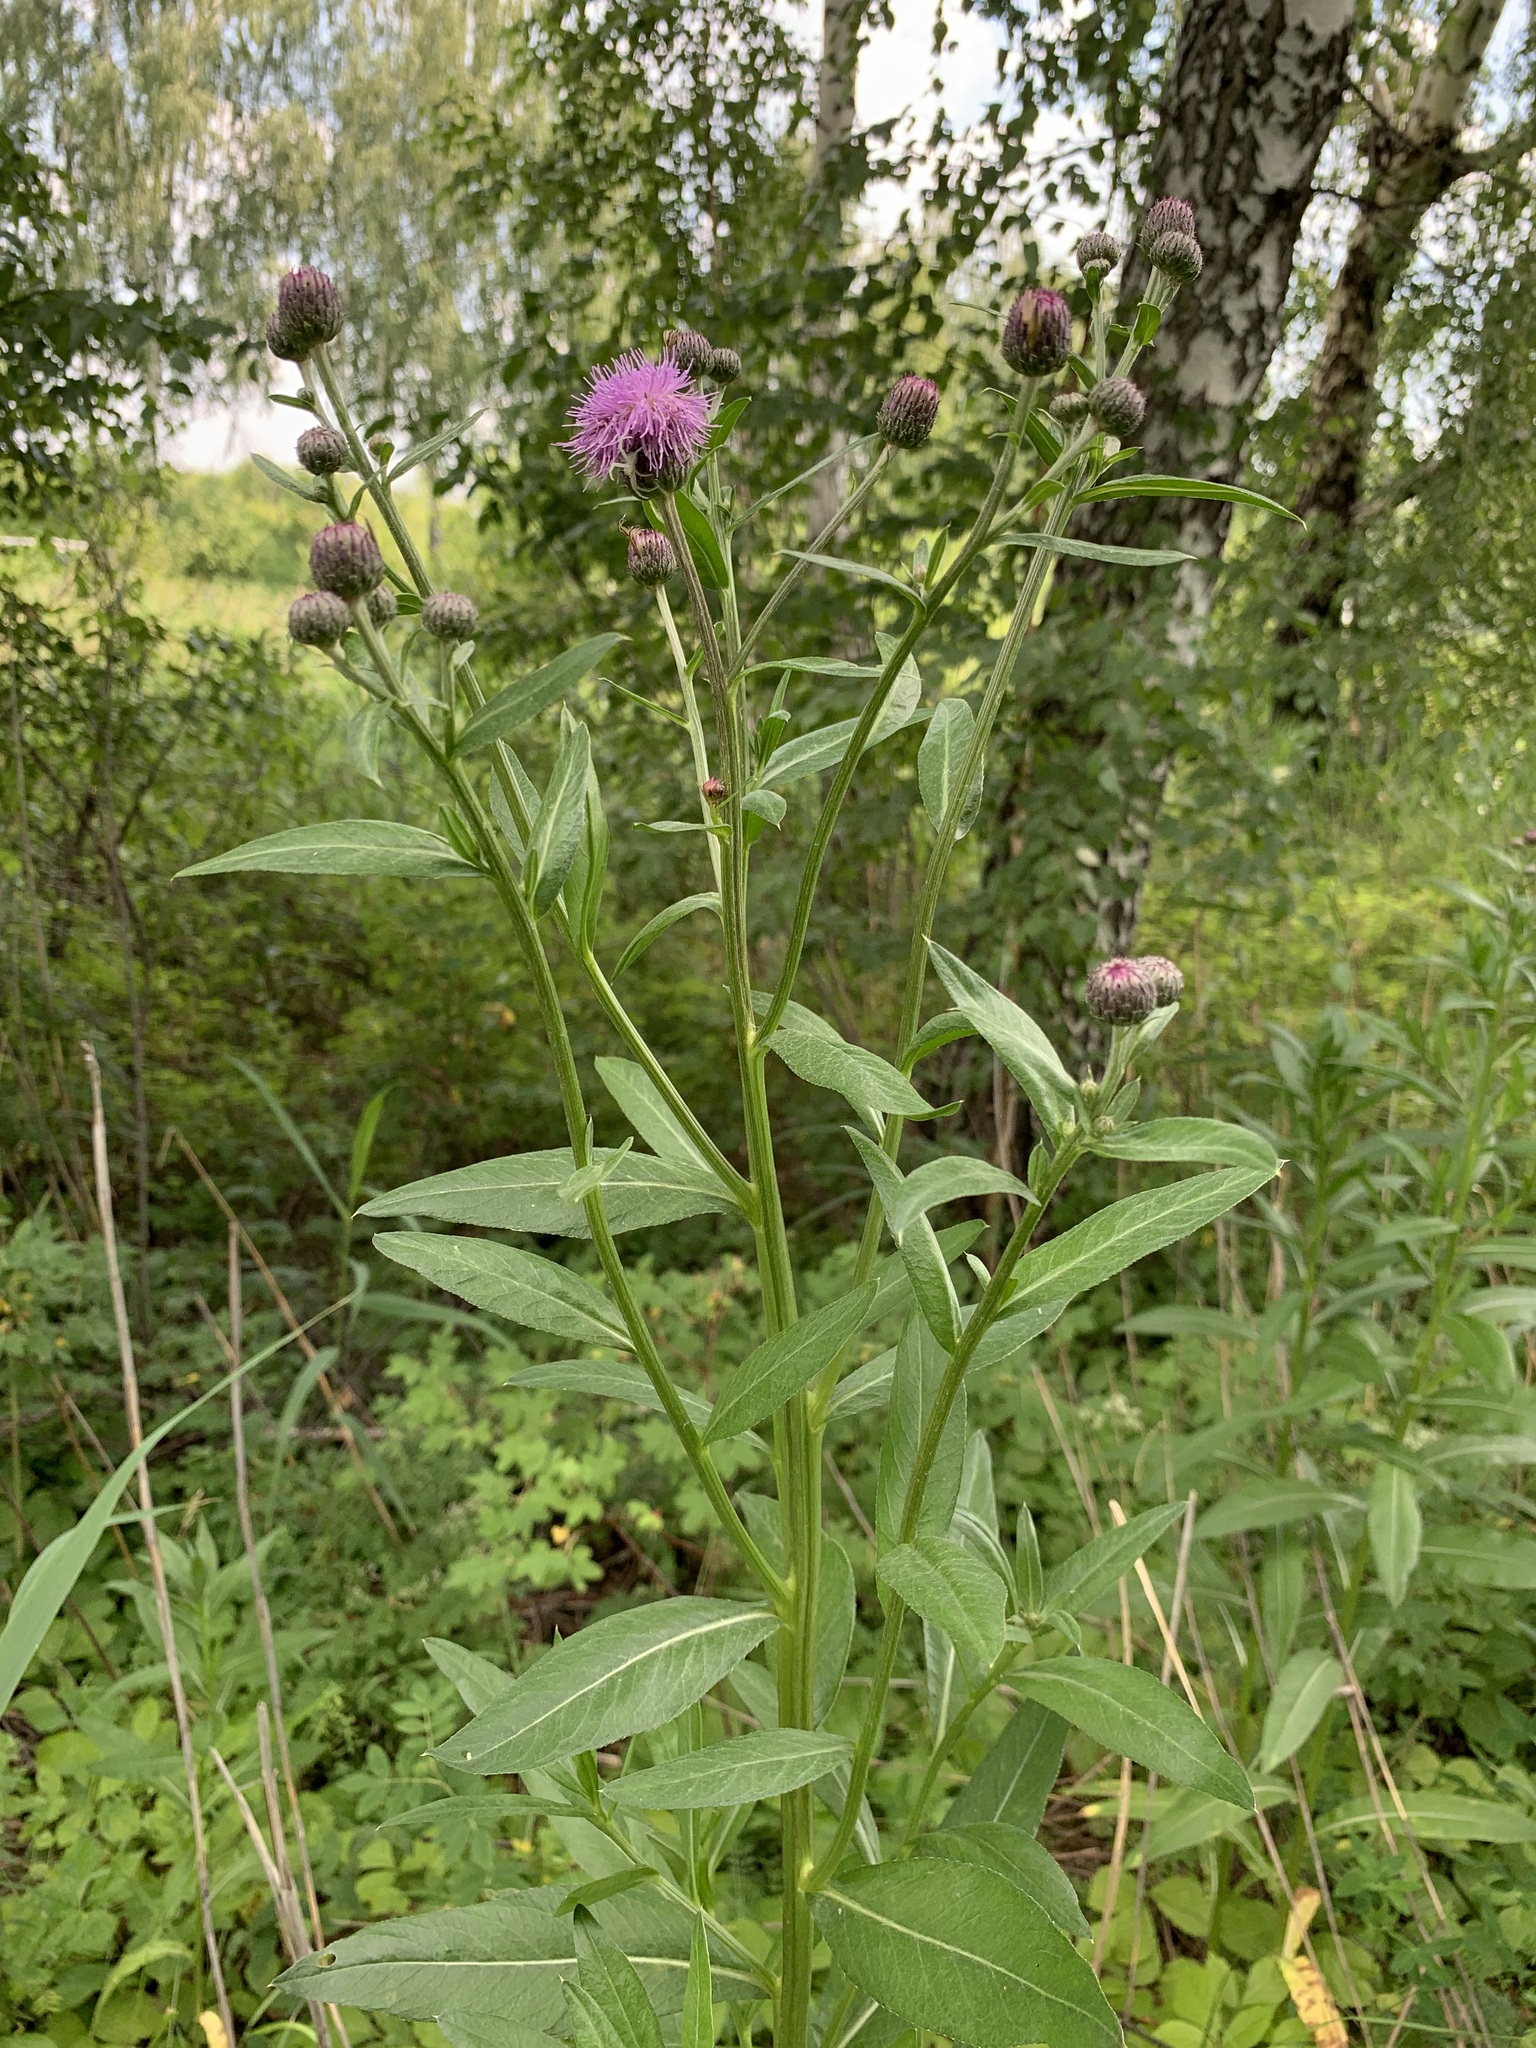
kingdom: Plantae
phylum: Tracheophyta
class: Magnoliopsida
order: Asterales
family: Asteraceae
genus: Cirsium
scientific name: Cirsium arvense
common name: Creeping thistle
